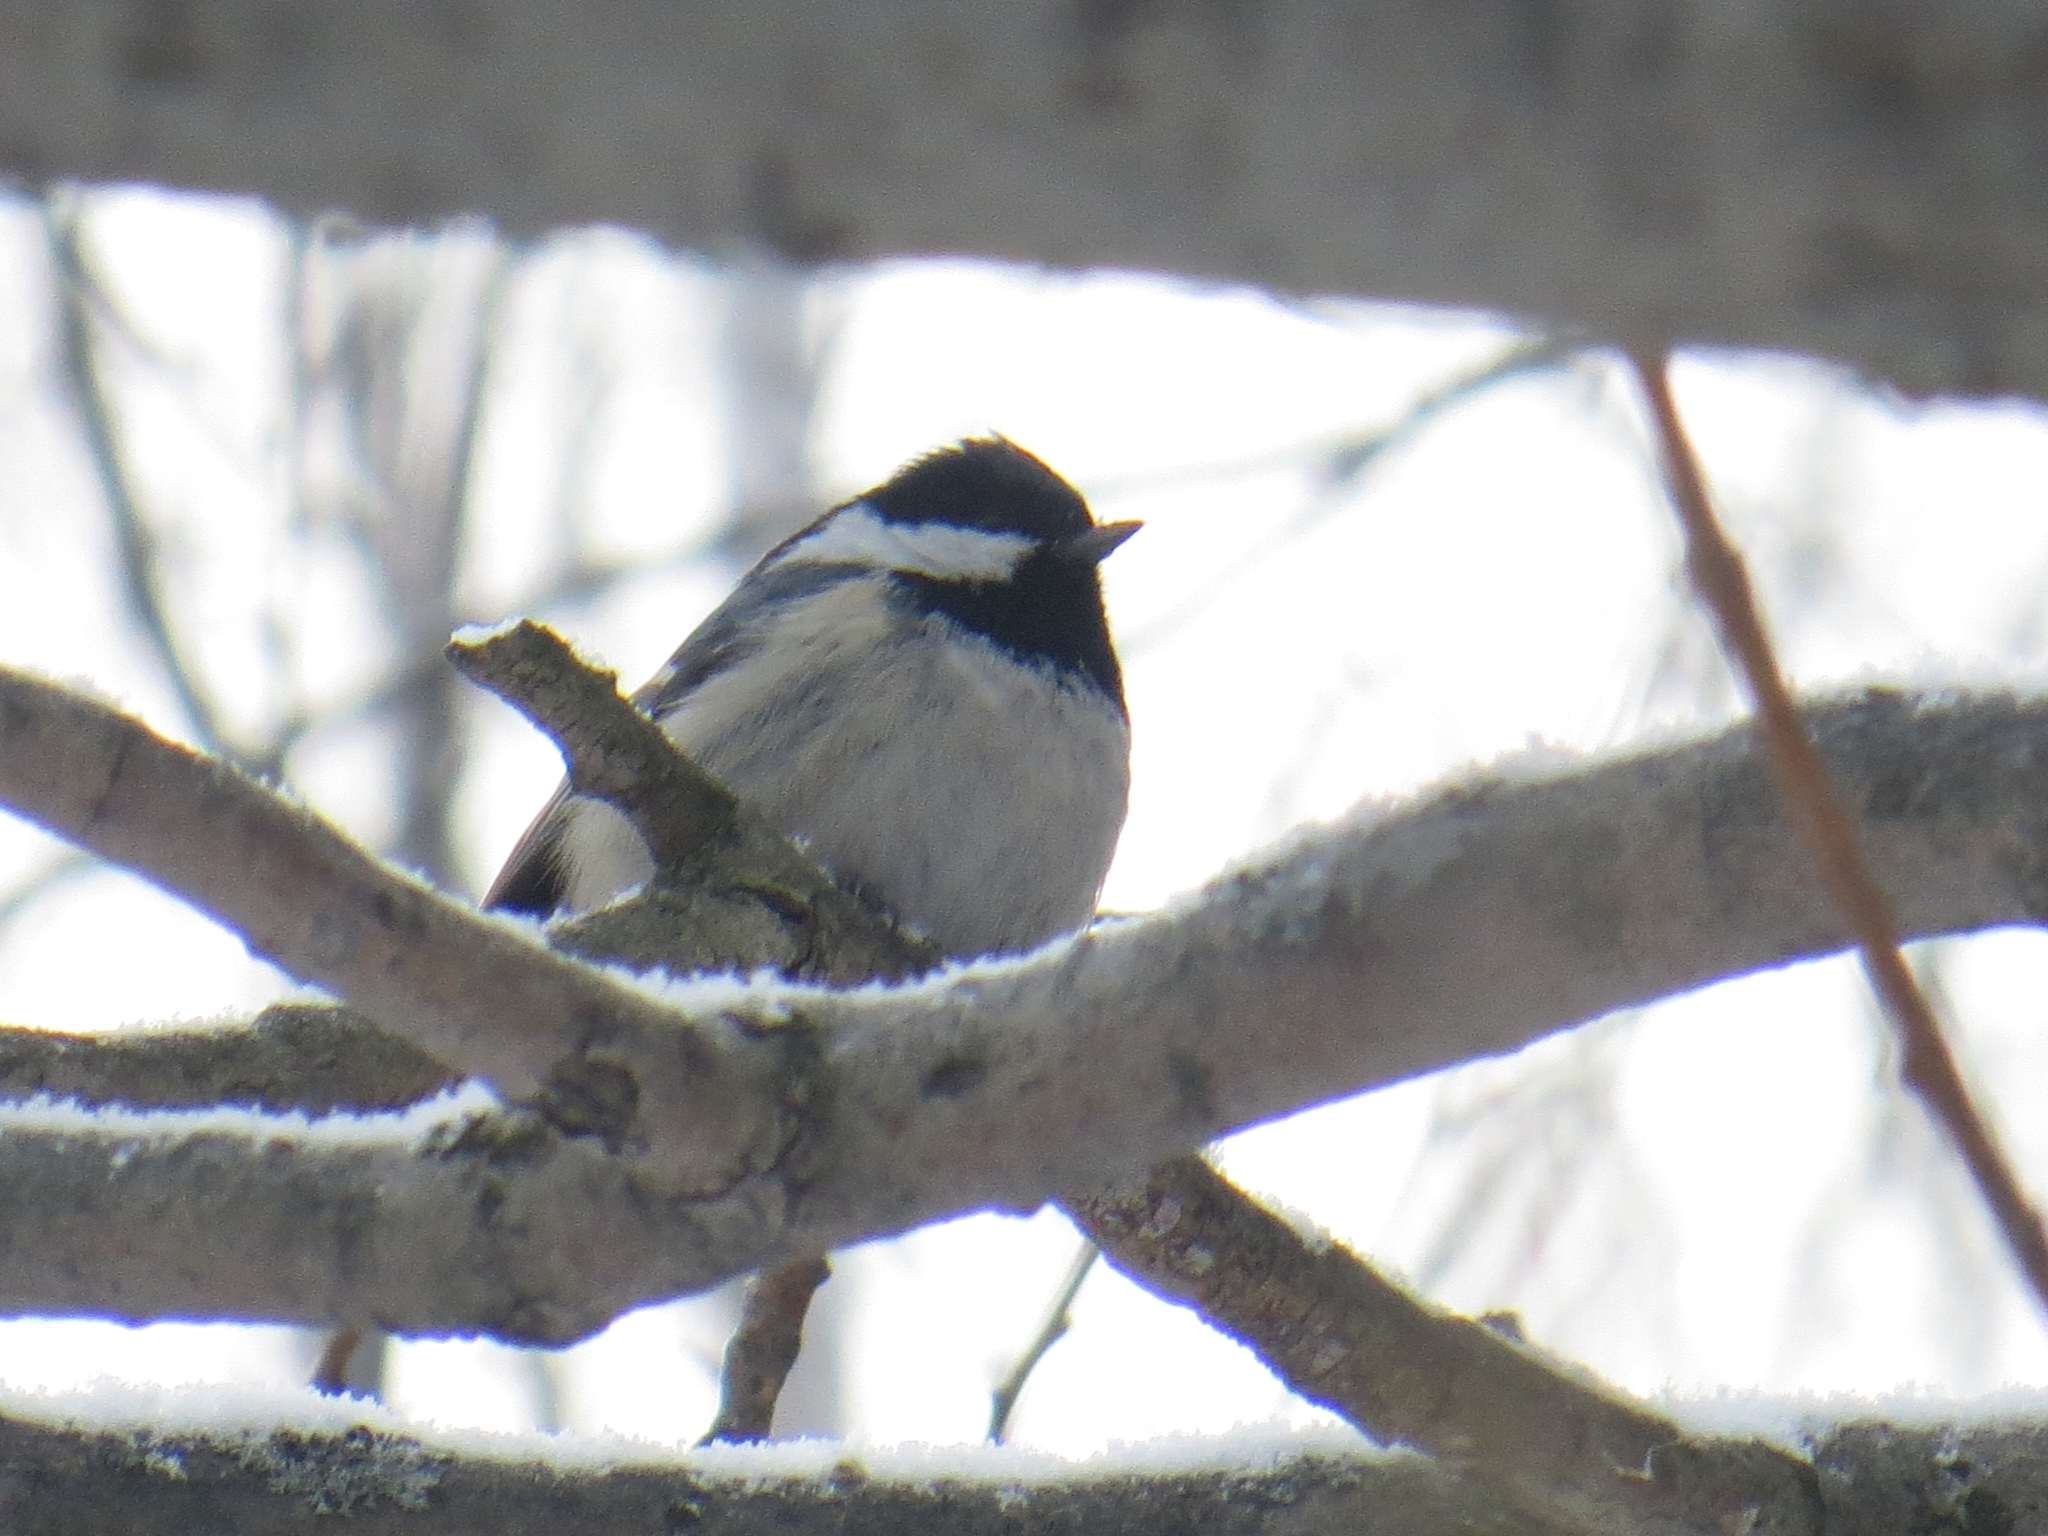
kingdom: Animalia
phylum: Chordata
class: Aves
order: Passeriformes
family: Paridae
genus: Periparus
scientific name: Periparus ater
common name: Coal tit
